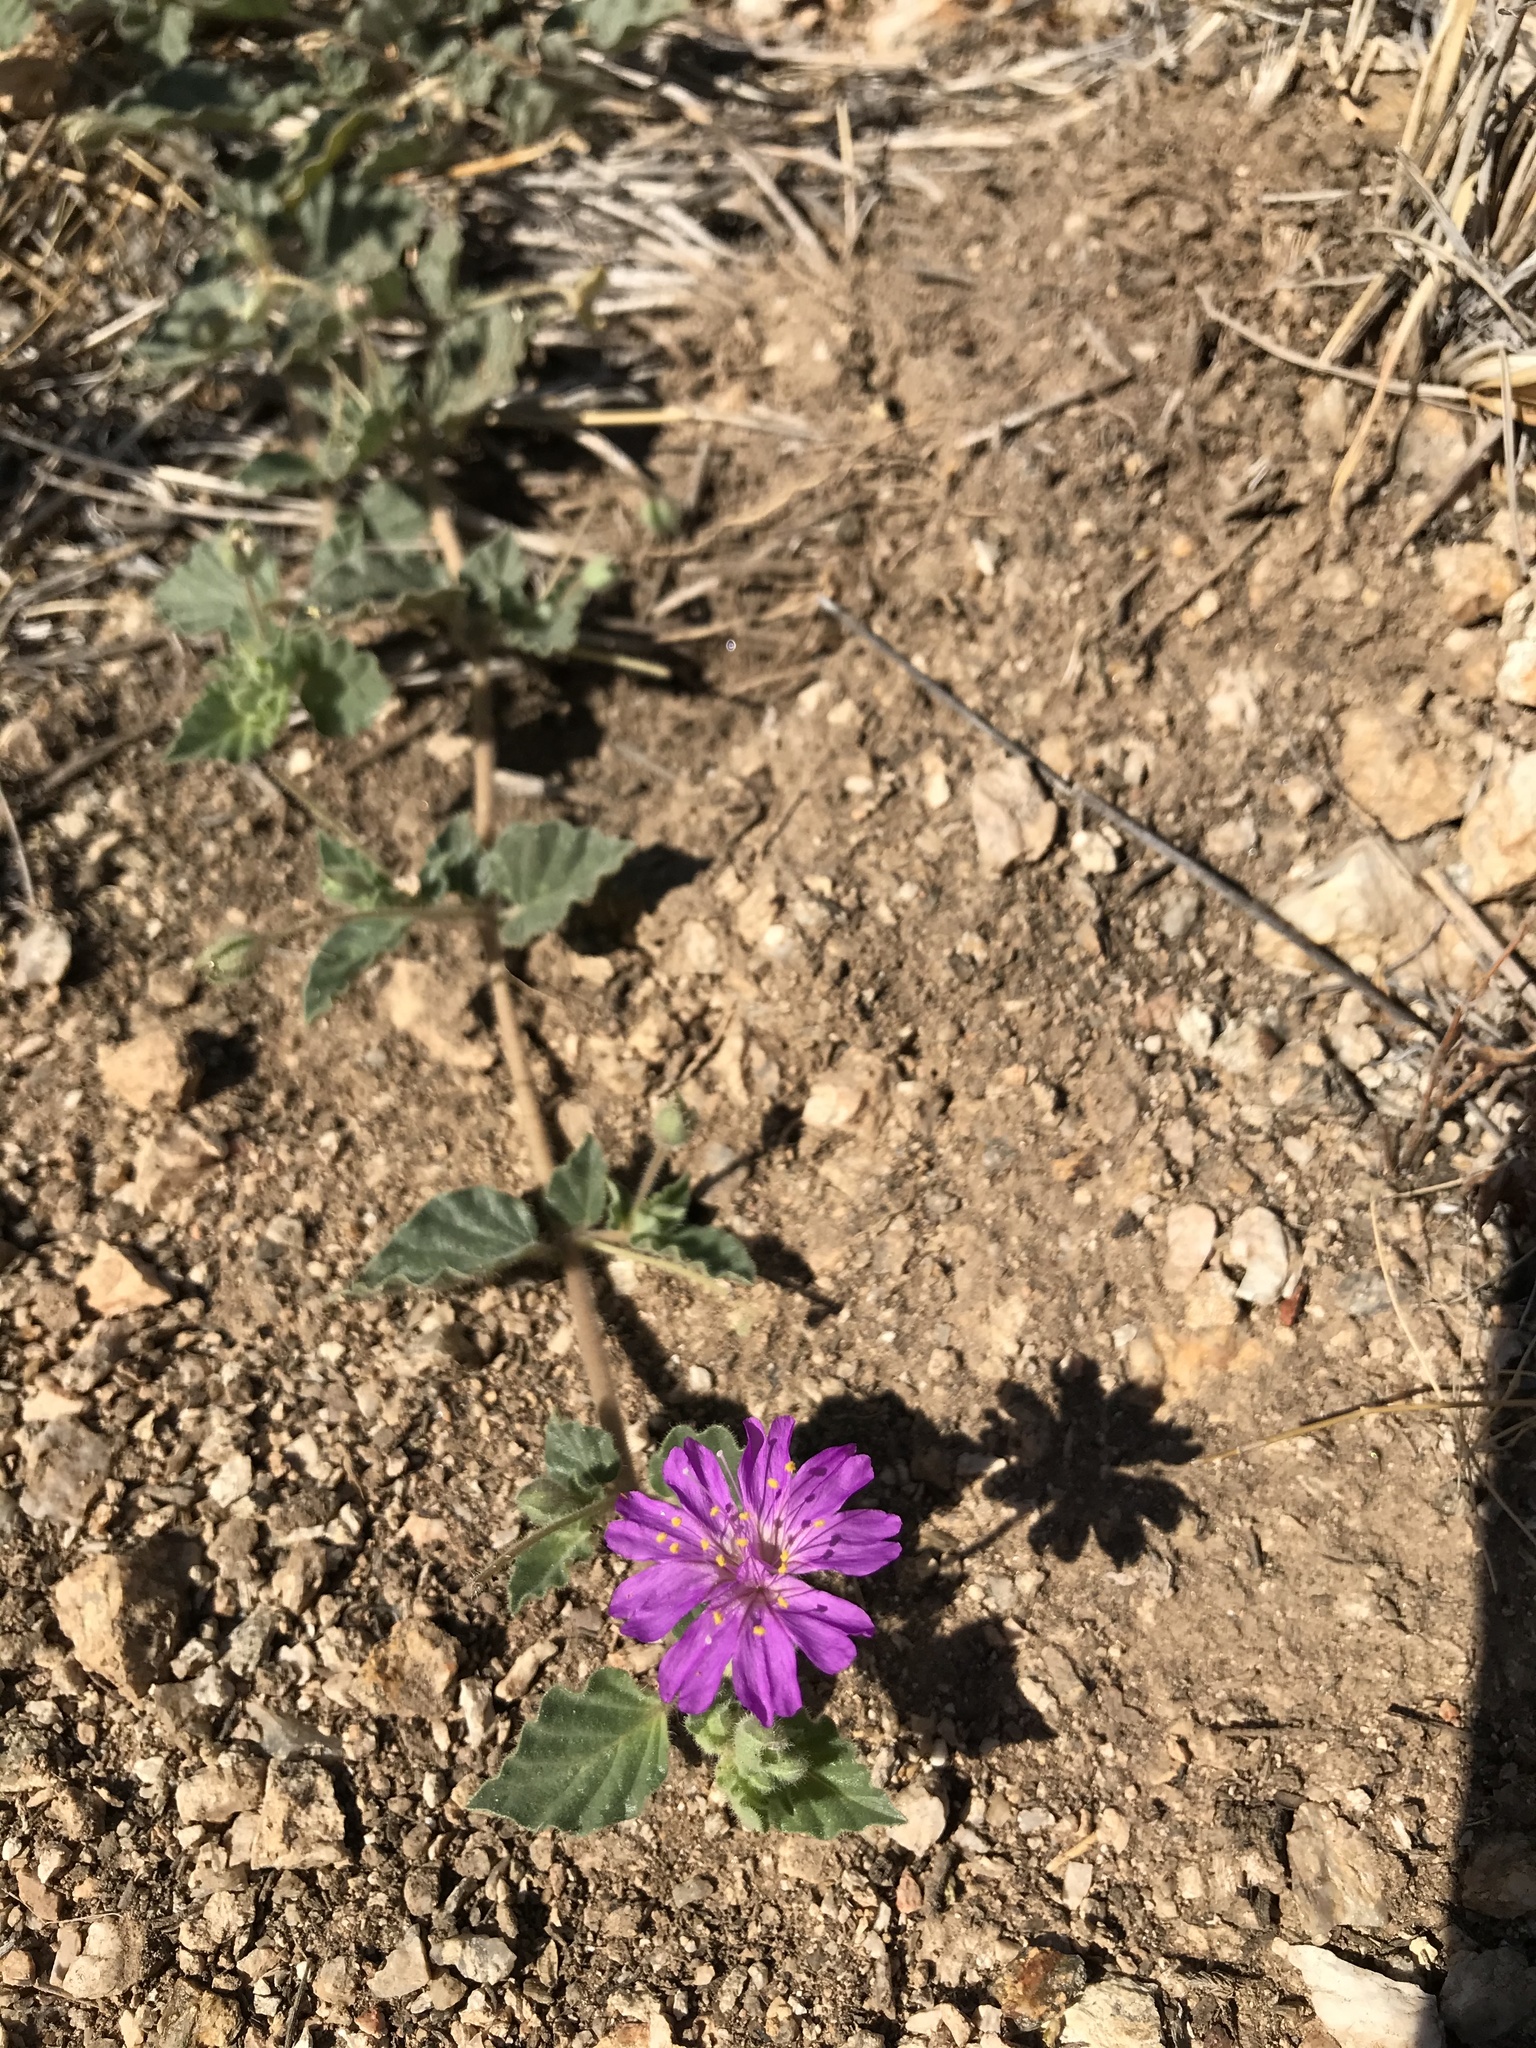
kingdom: Plantae
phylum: Tracheophyta
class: Magnoliopsida
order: Caryophyllales
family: Nyctaginaceae
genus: Allionia
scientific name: Allionia incarnata
